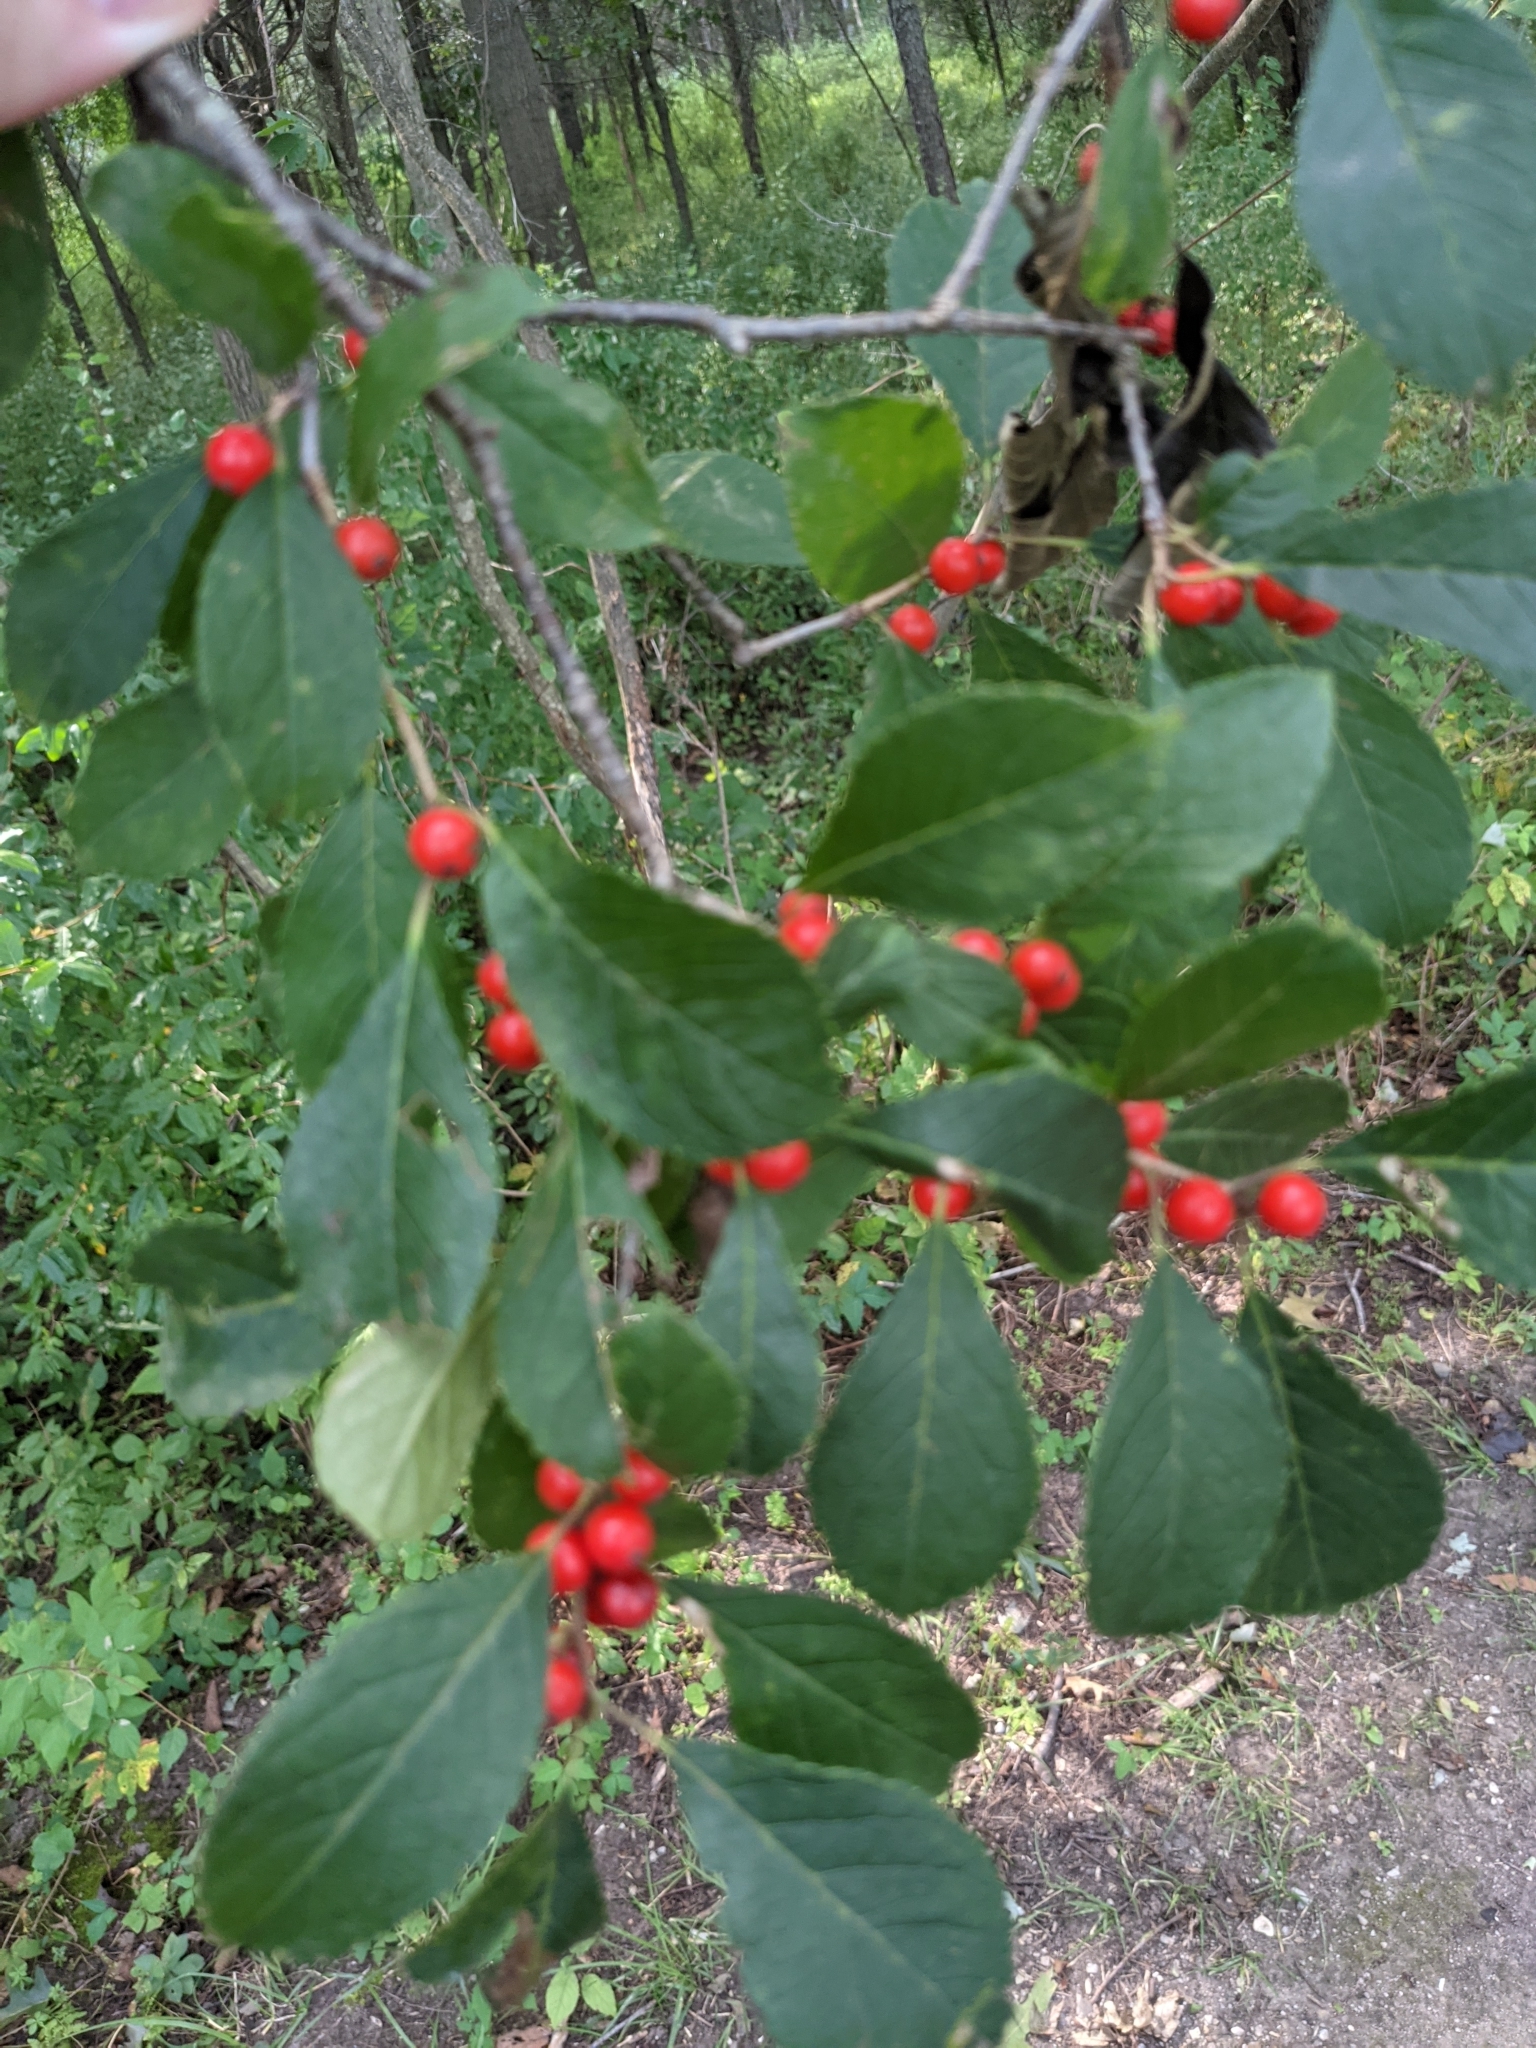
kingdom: Plantae
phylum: Tracheophyta
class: Magnoliopsida
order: Aquifoliales
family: Aquifoliaceae
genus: Ilex
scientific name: Ilex verticillata
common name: Virginia winterberry
